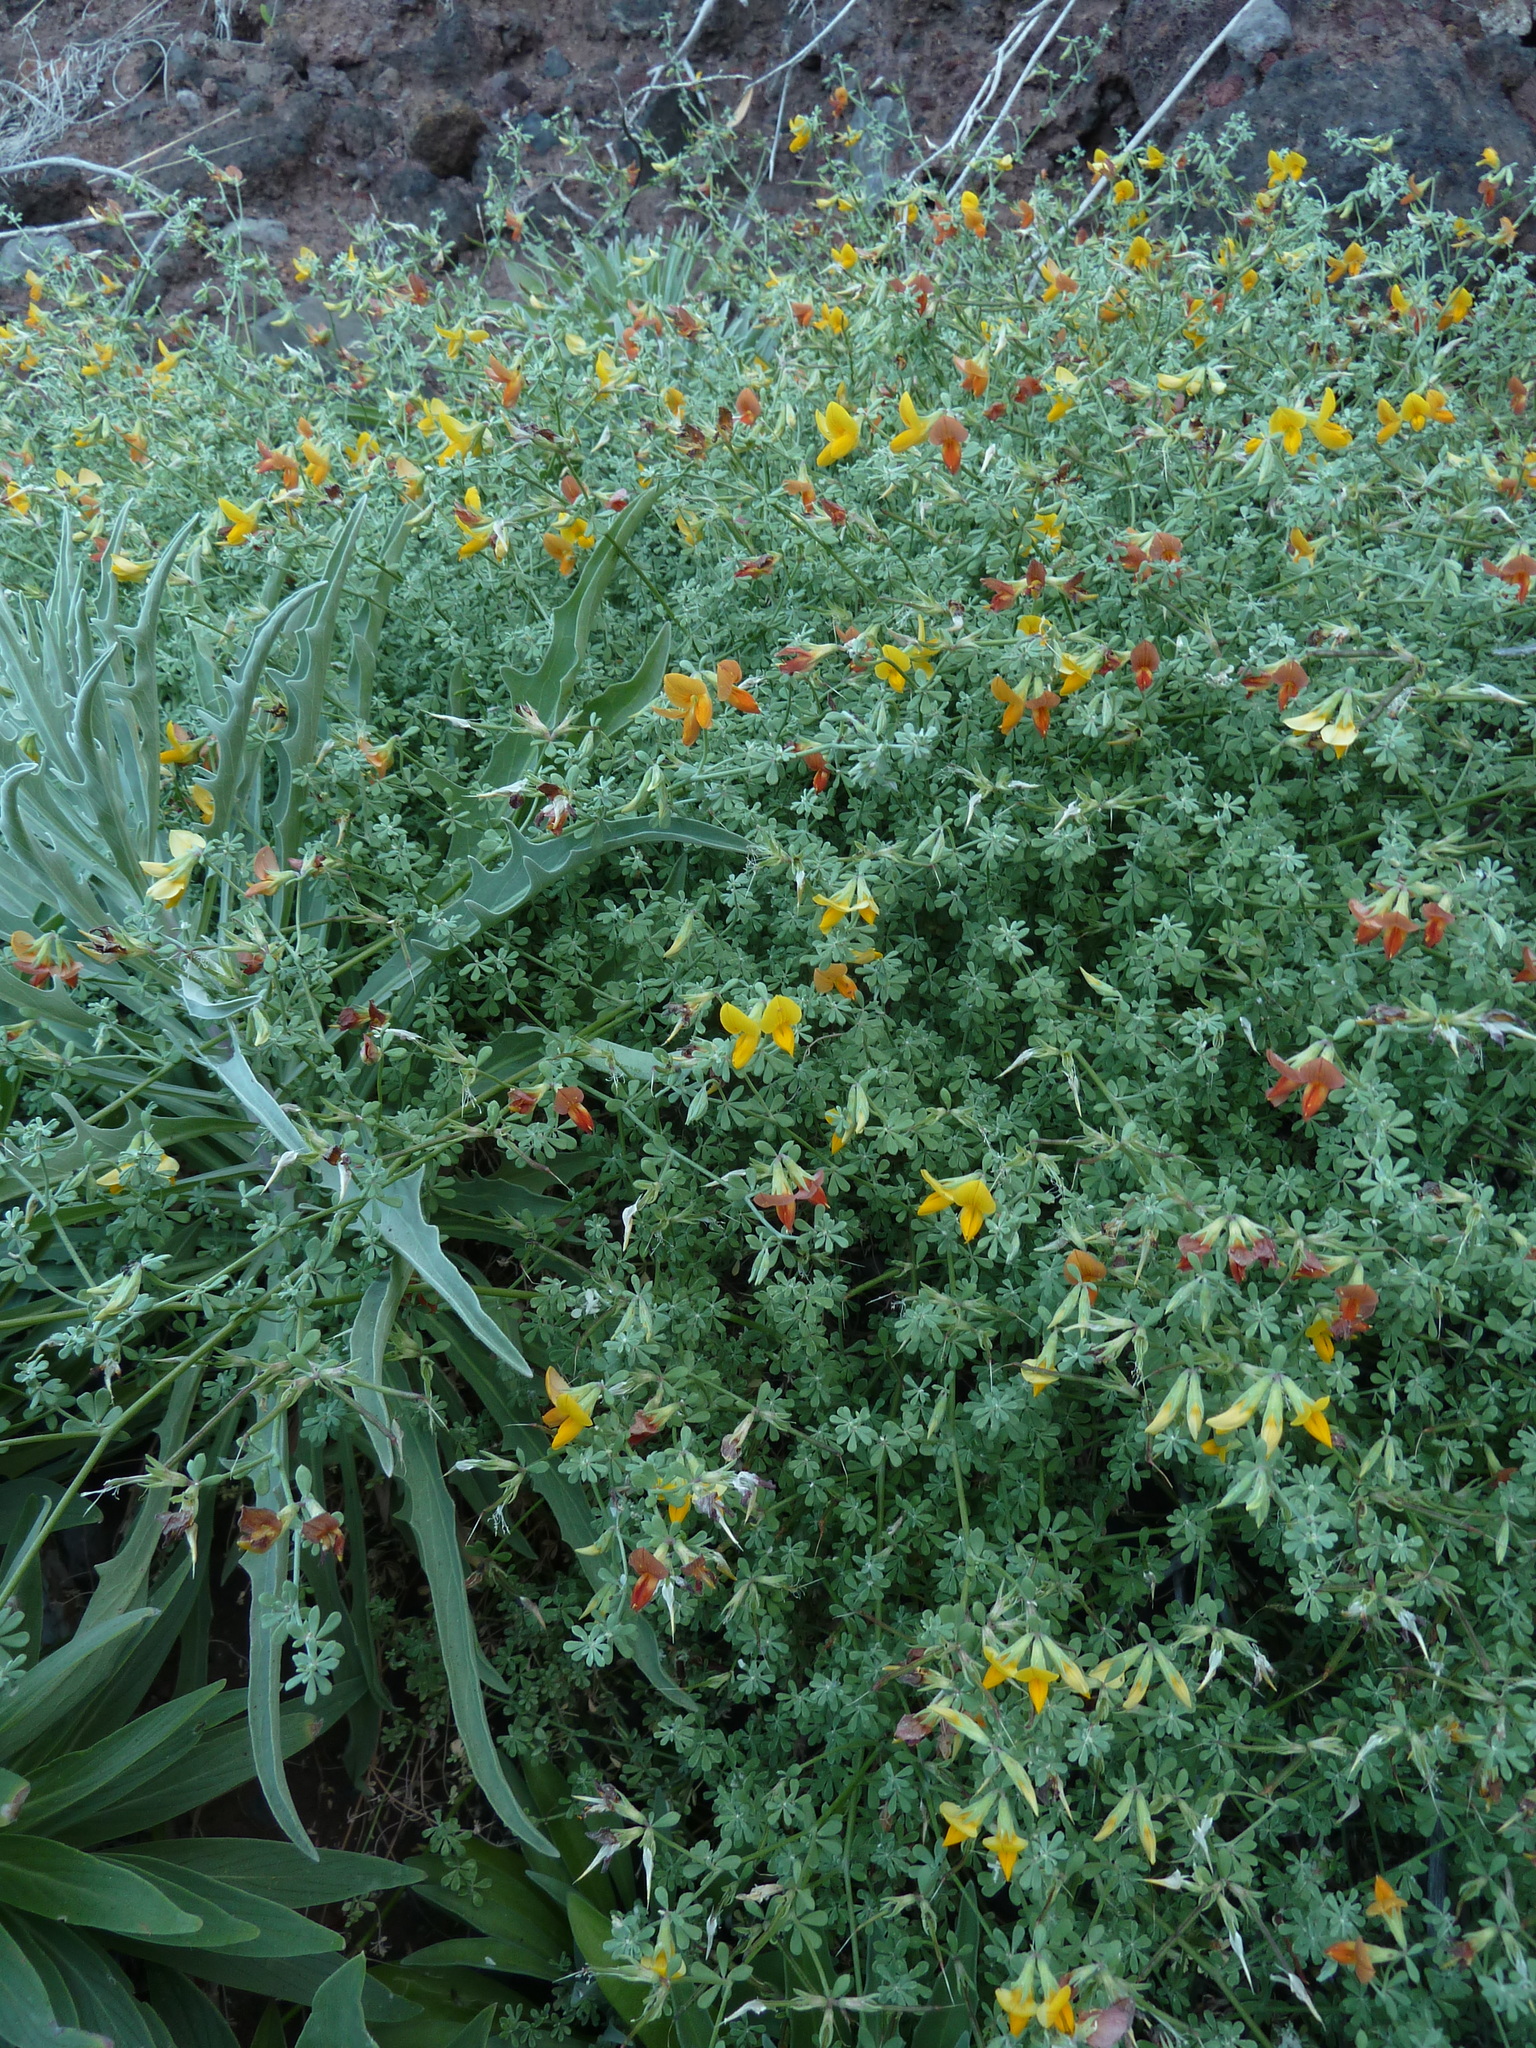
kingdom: Plantae
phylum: Tracheophyta
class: Magnoliopsida
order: Fabales
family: Fabaceae
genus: Lotus
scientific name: Lotus glaucus
